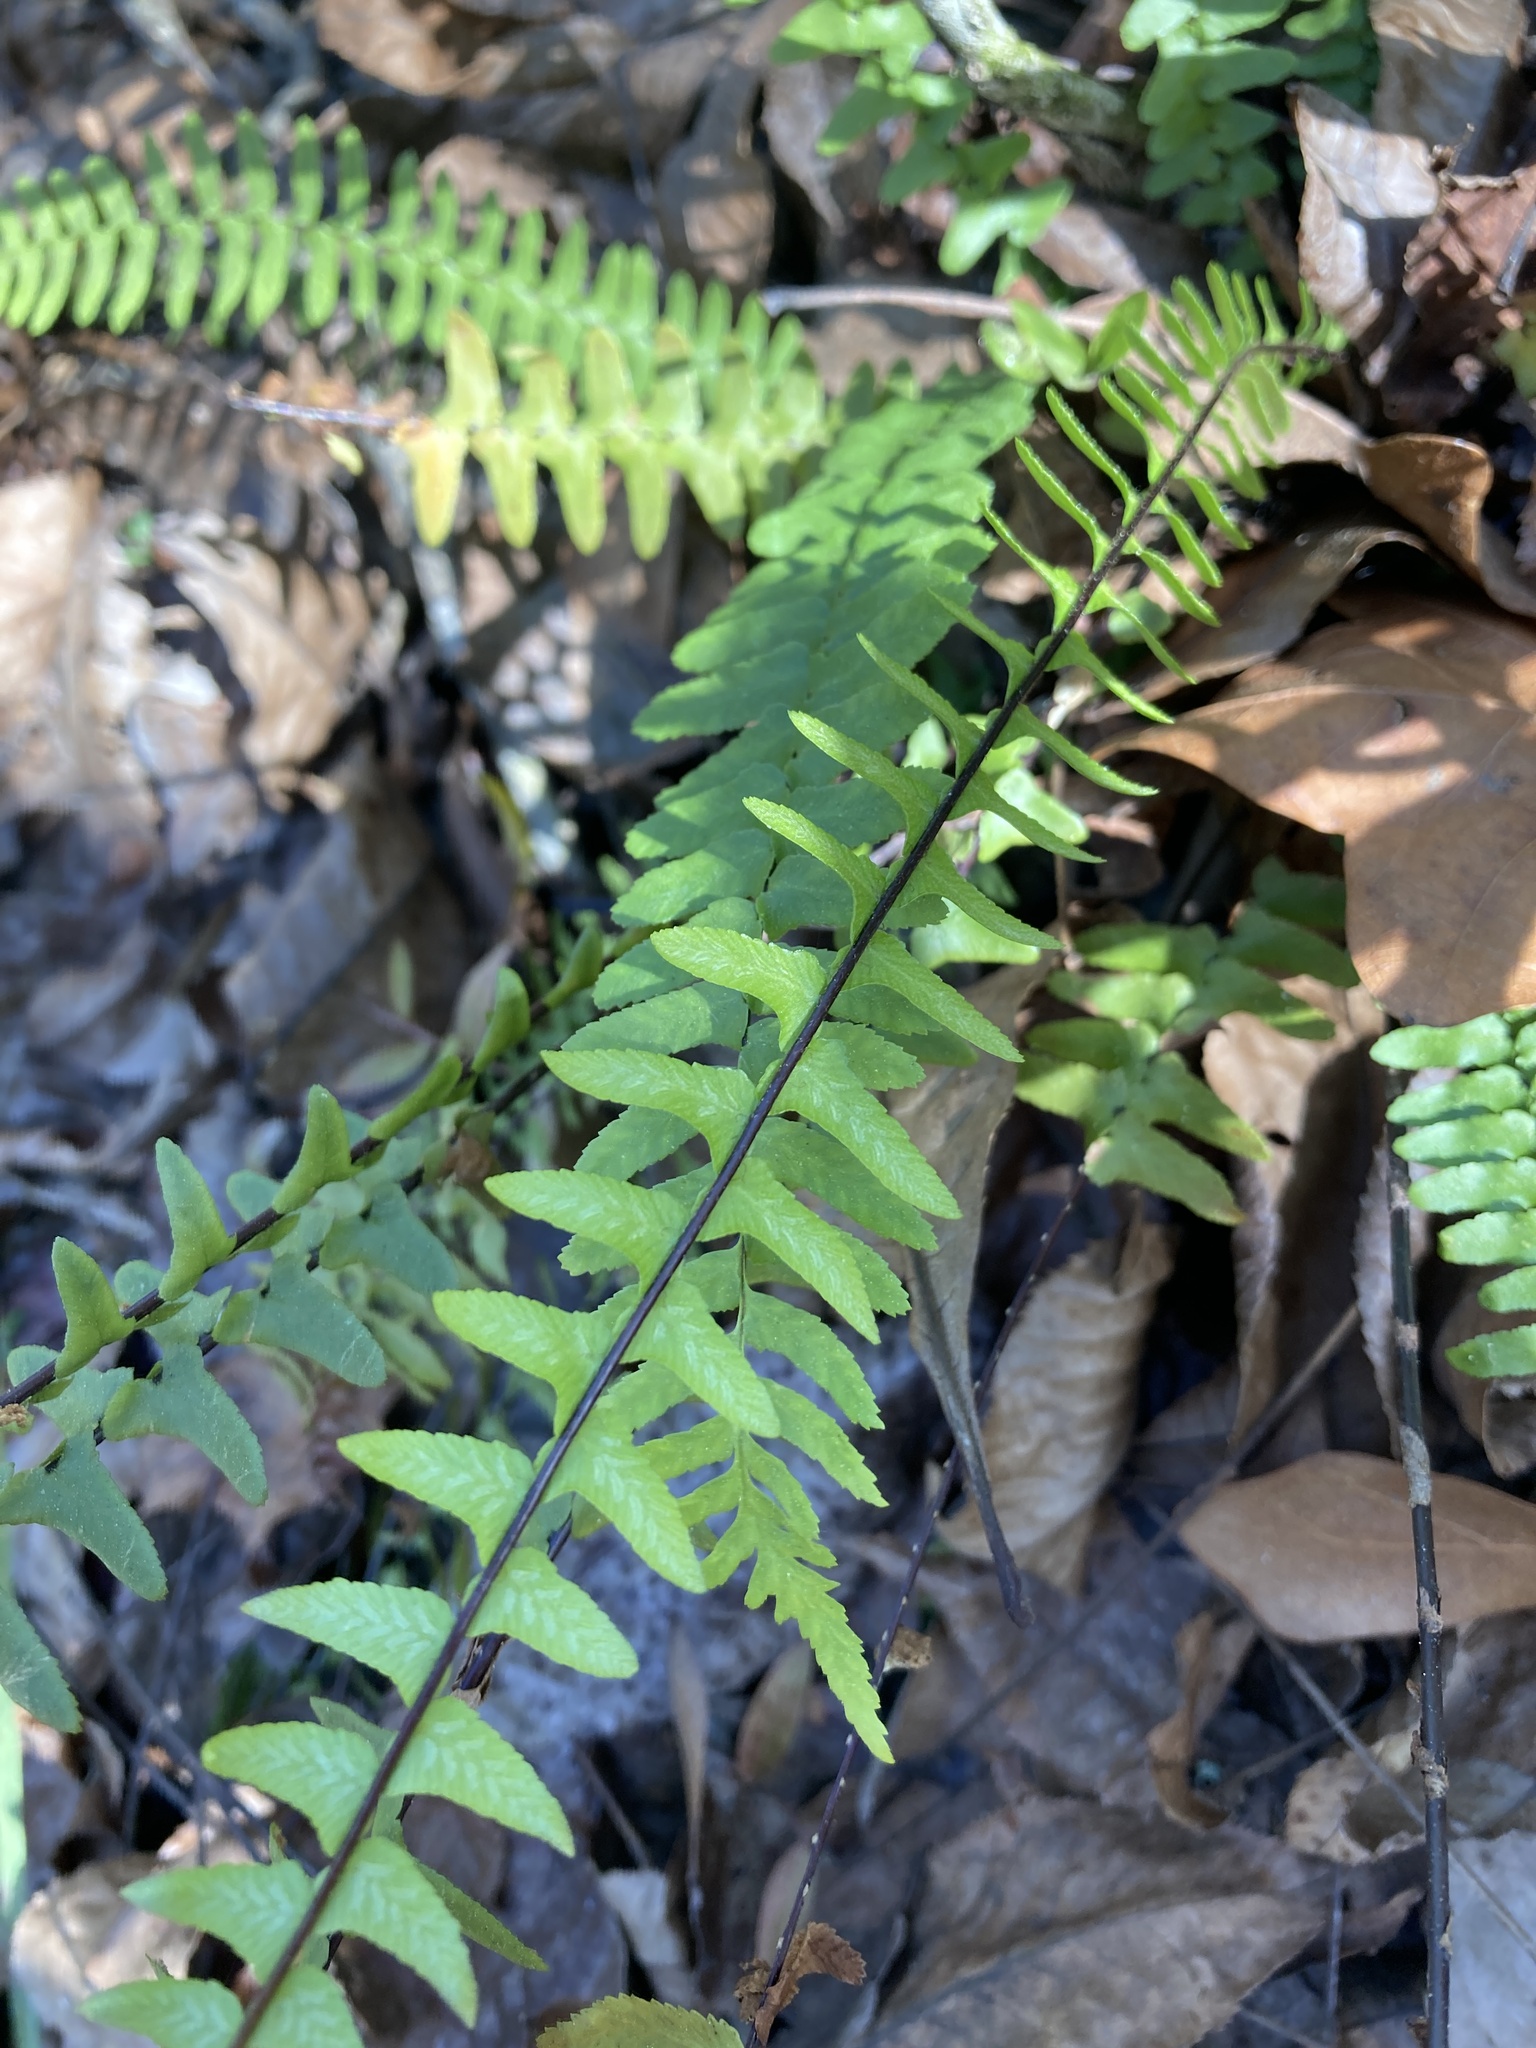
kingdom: Plantae
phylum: Tracheophyta
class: Polypodiopsida
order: Polypodiales
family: Aspleniaceae
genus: Asplenium
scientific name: Asplenium platyneuron
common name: Ebony spleenwort
